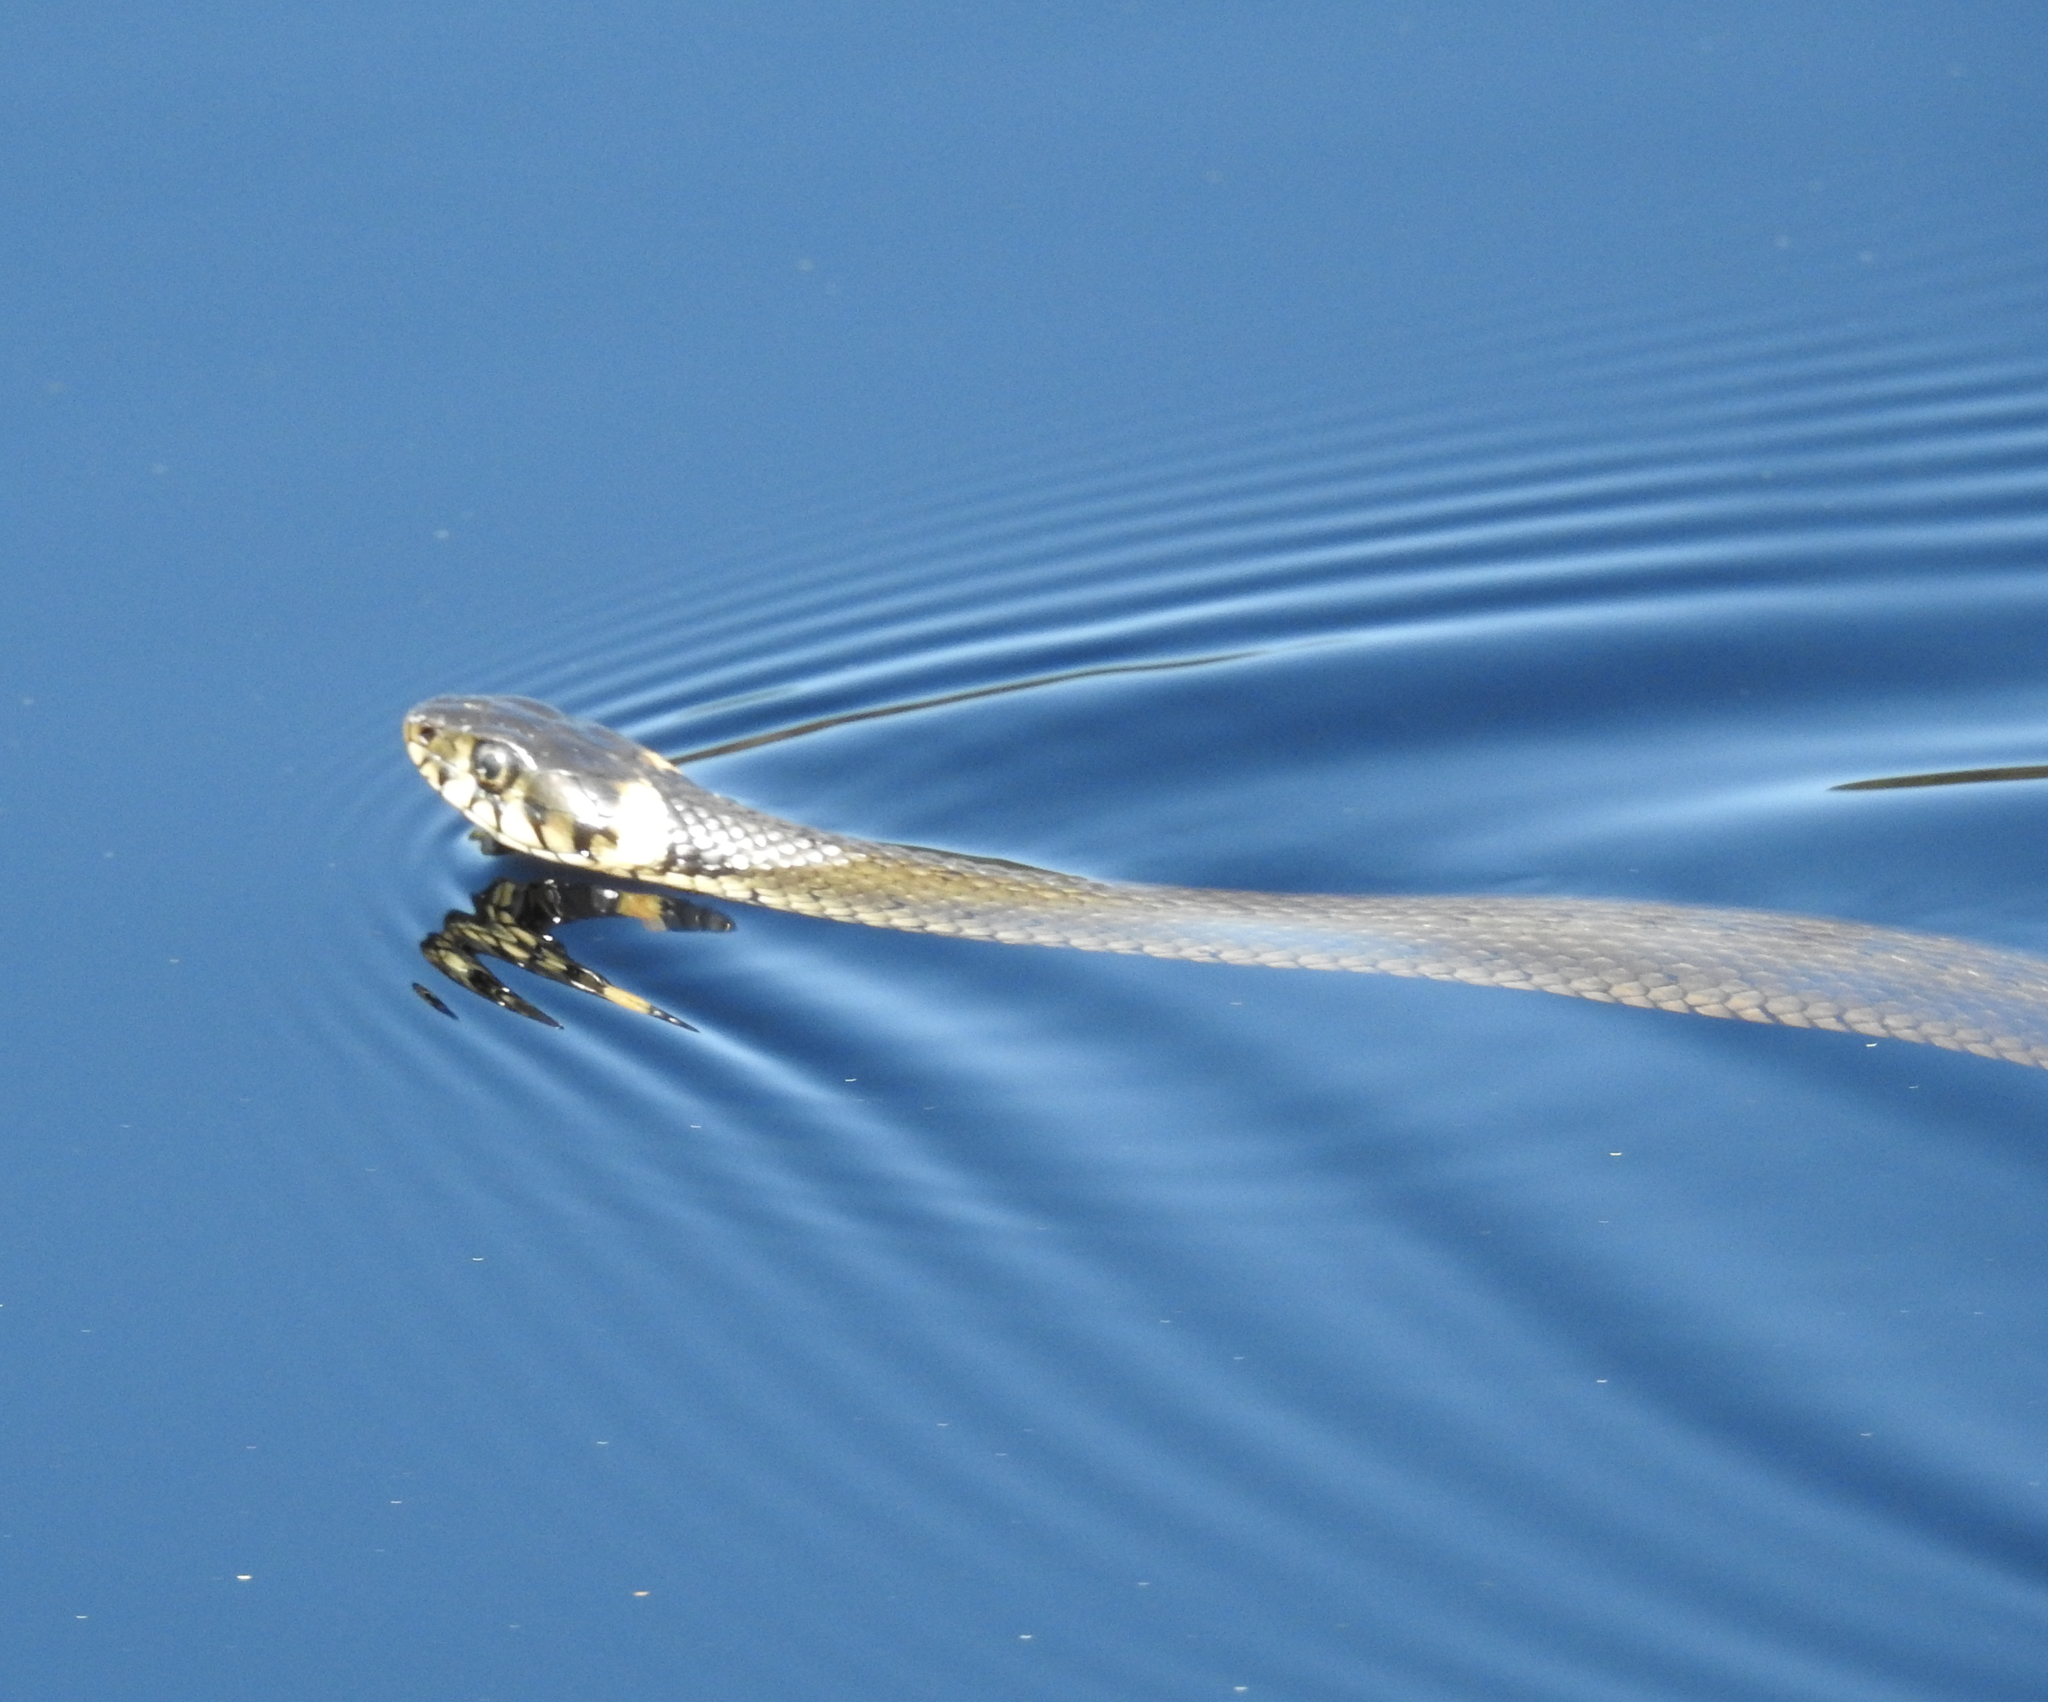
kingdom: Animalia
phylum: Chordata
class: Squamata
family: Colubridae
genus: Natrix
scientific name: Natrix natrix
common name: Grass snake
